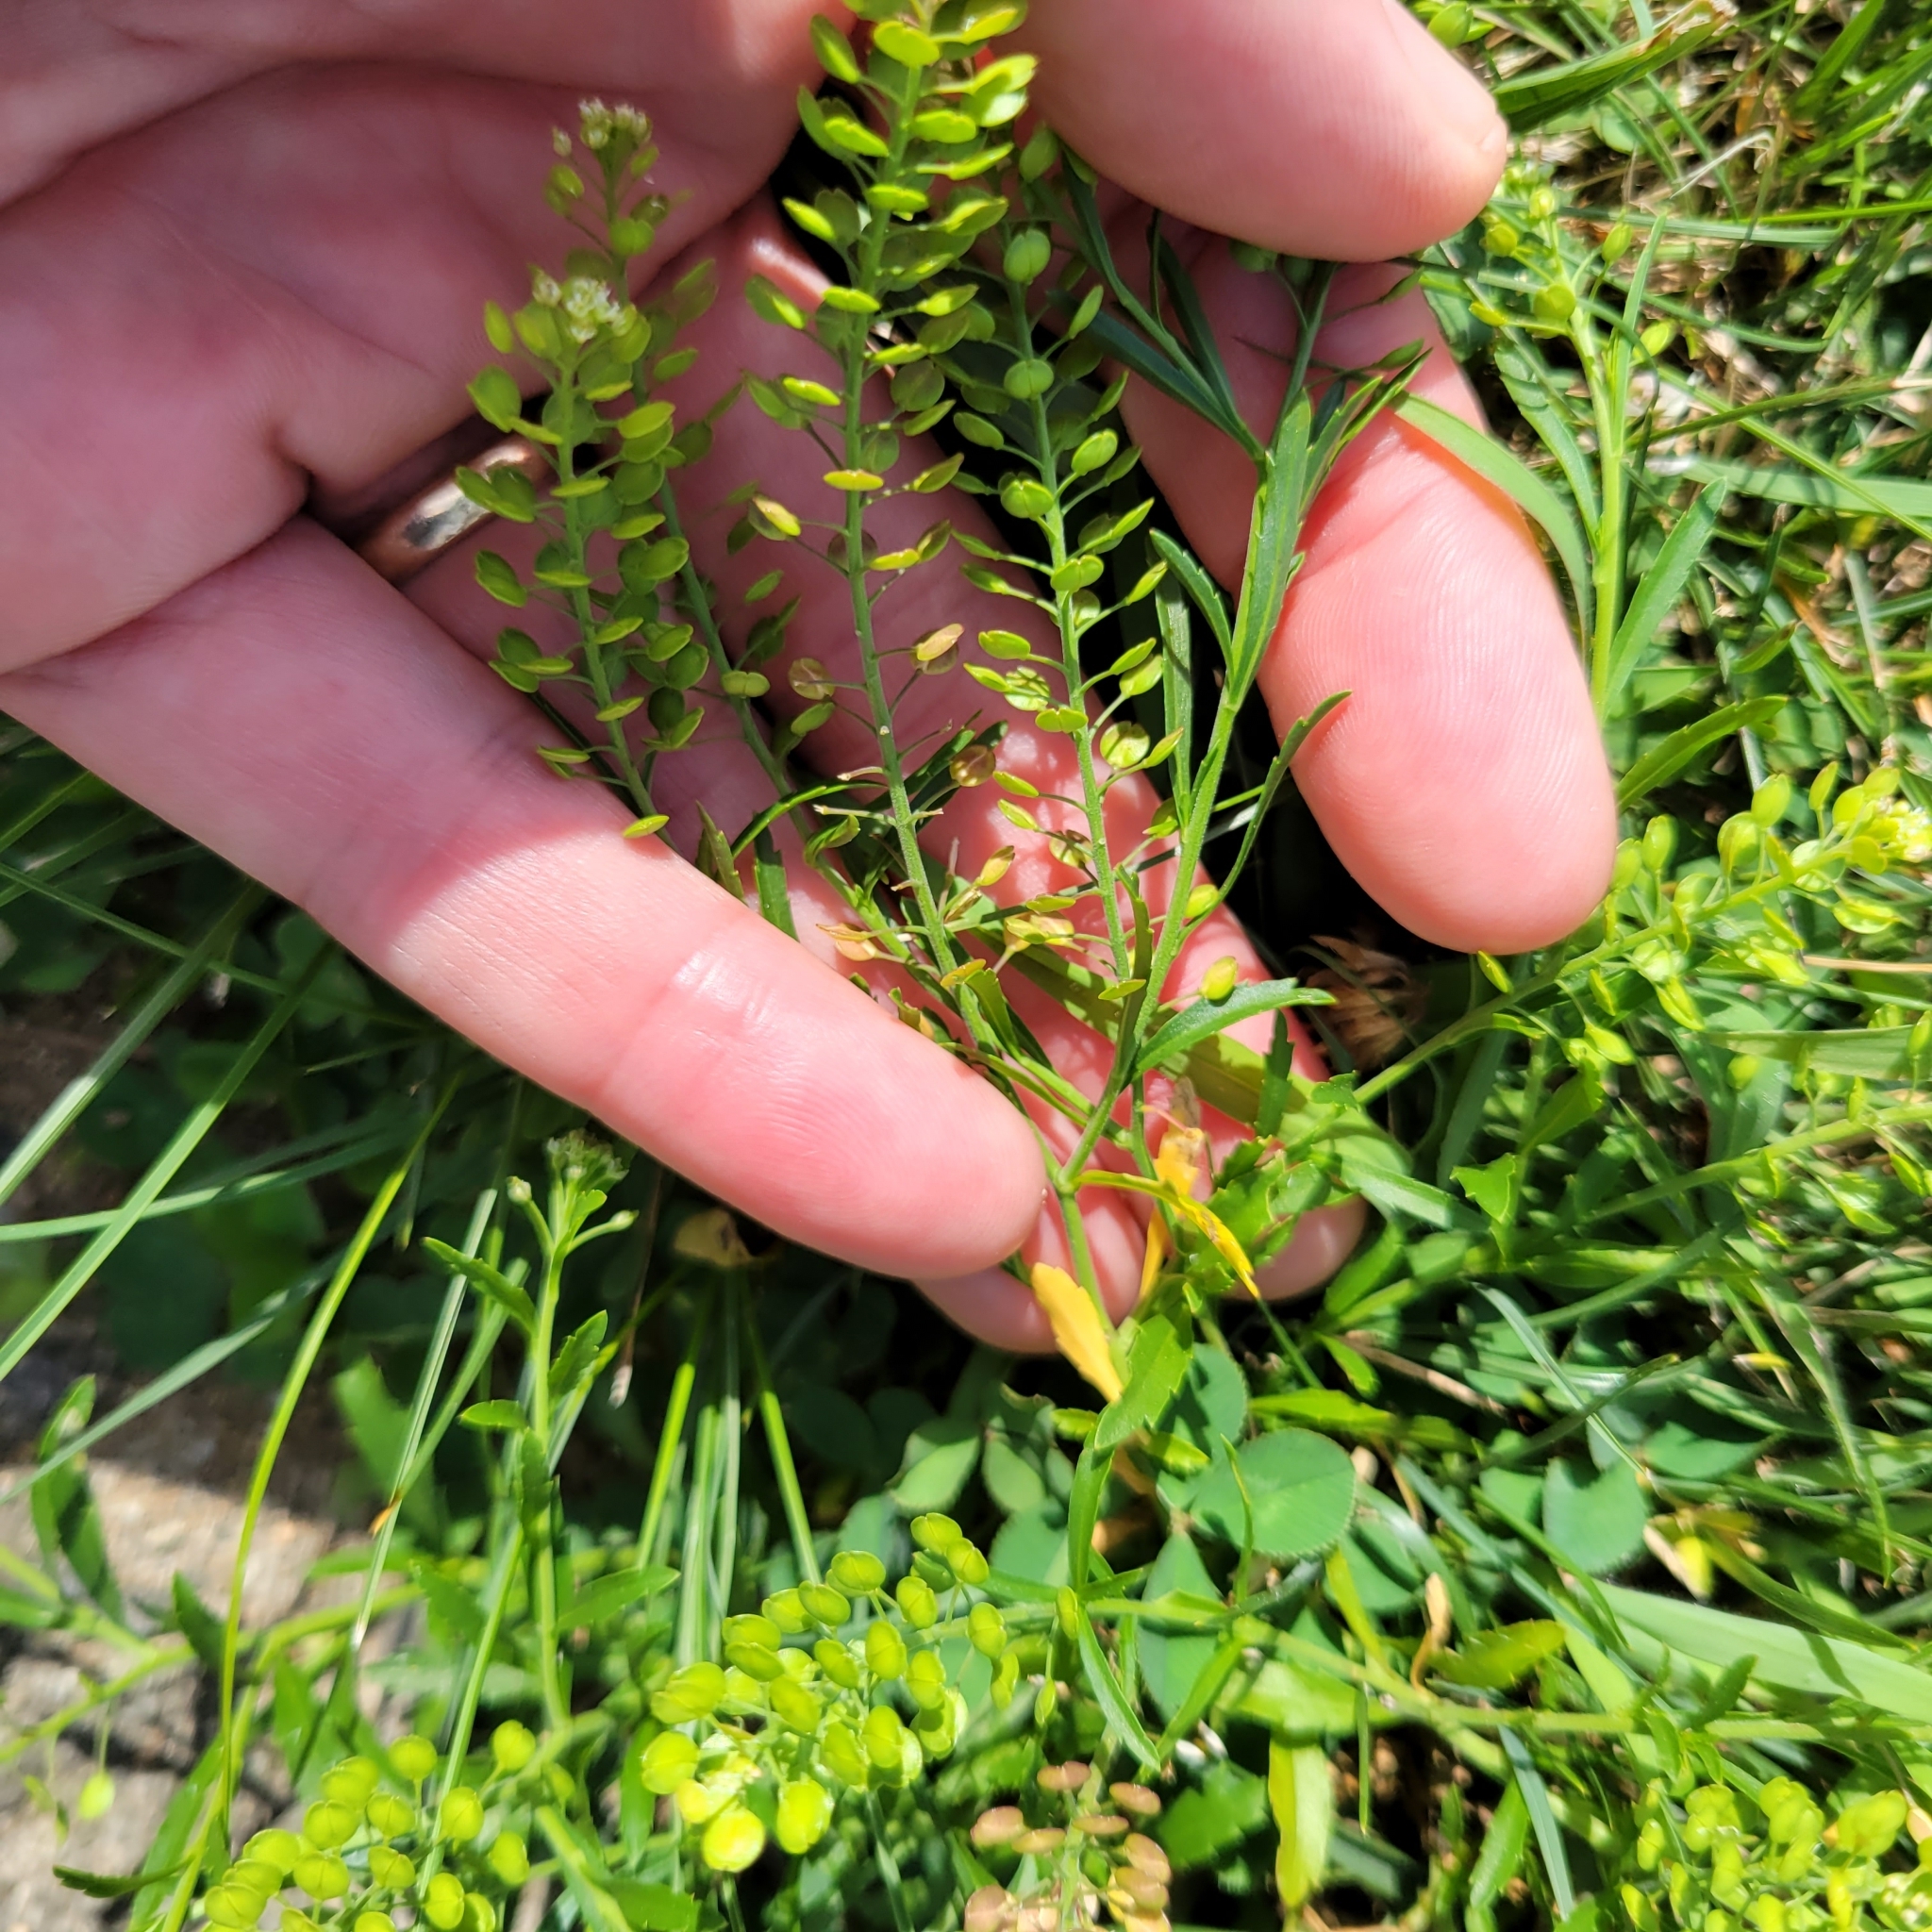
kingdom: Plantae
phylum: Tracheophyta
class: Magnoliopsida
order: Brassicales
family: Brassicaceae
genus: Lepidium
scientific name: Lepidium densiflorum
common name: Miner's pepperwort
